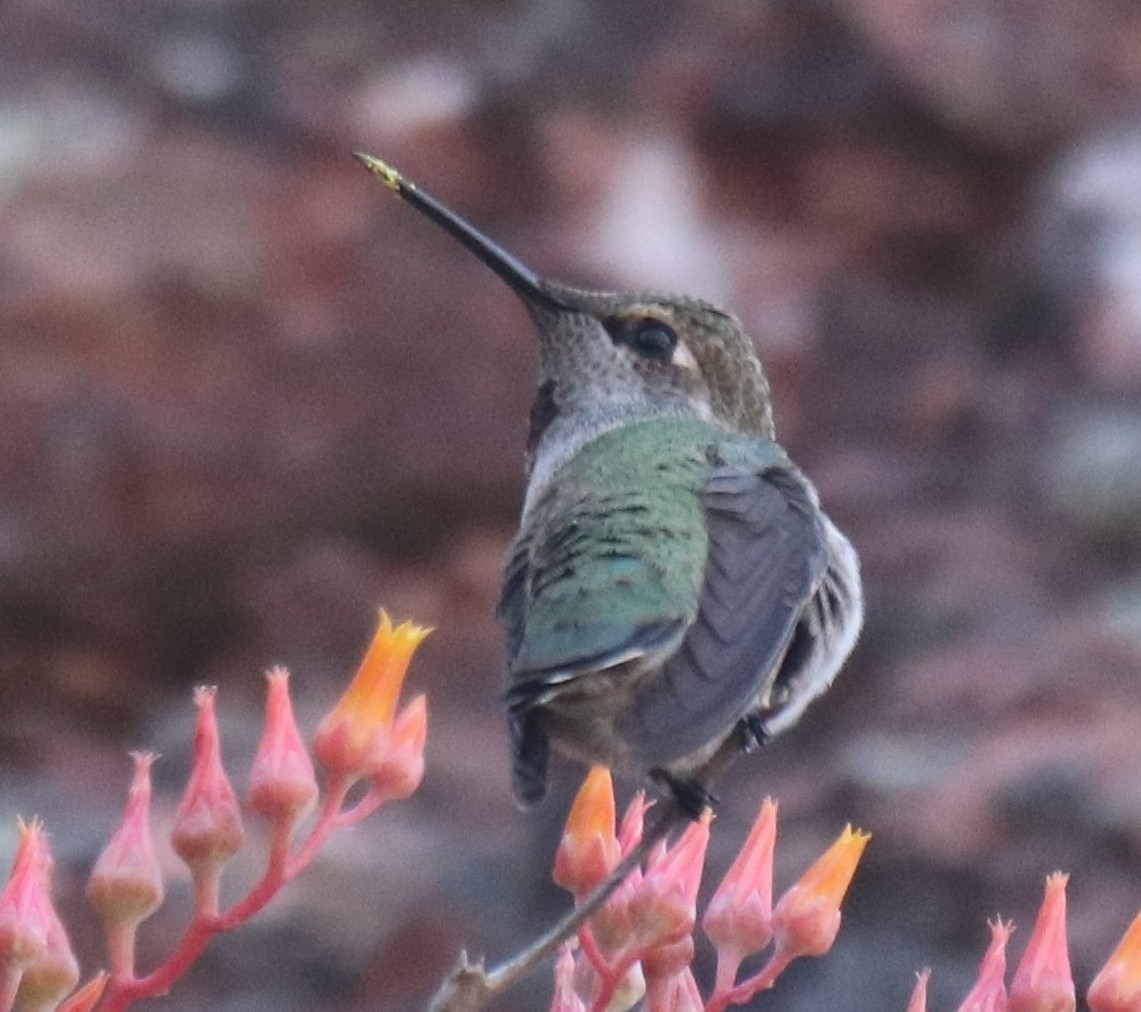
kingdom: Animalia
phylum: Chordata
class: Aves
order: Apodiformes
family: Trochilidae
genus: Calypte
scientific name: Calypte anna
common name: Anna's hummingbird
